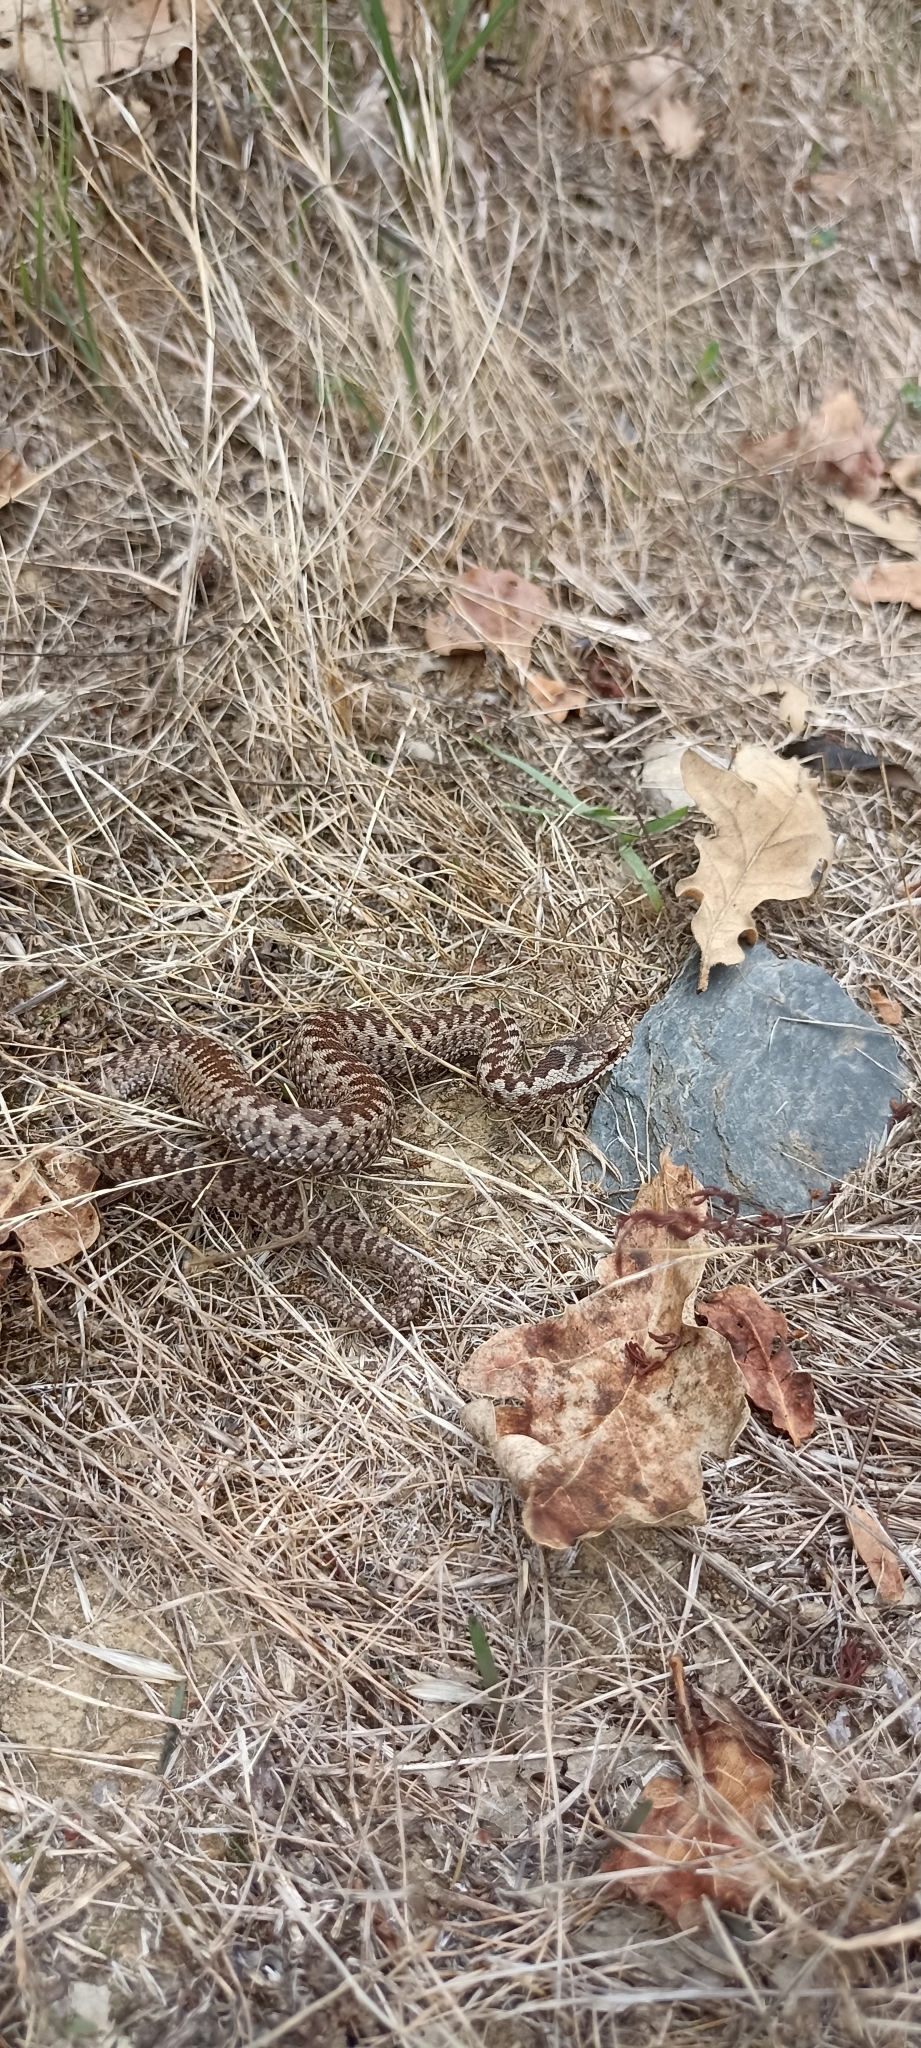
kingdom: Animalia
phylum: Chordata
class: Squamata
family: Viperidae
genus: Vipera
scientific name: Vipera berus
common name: Adder
